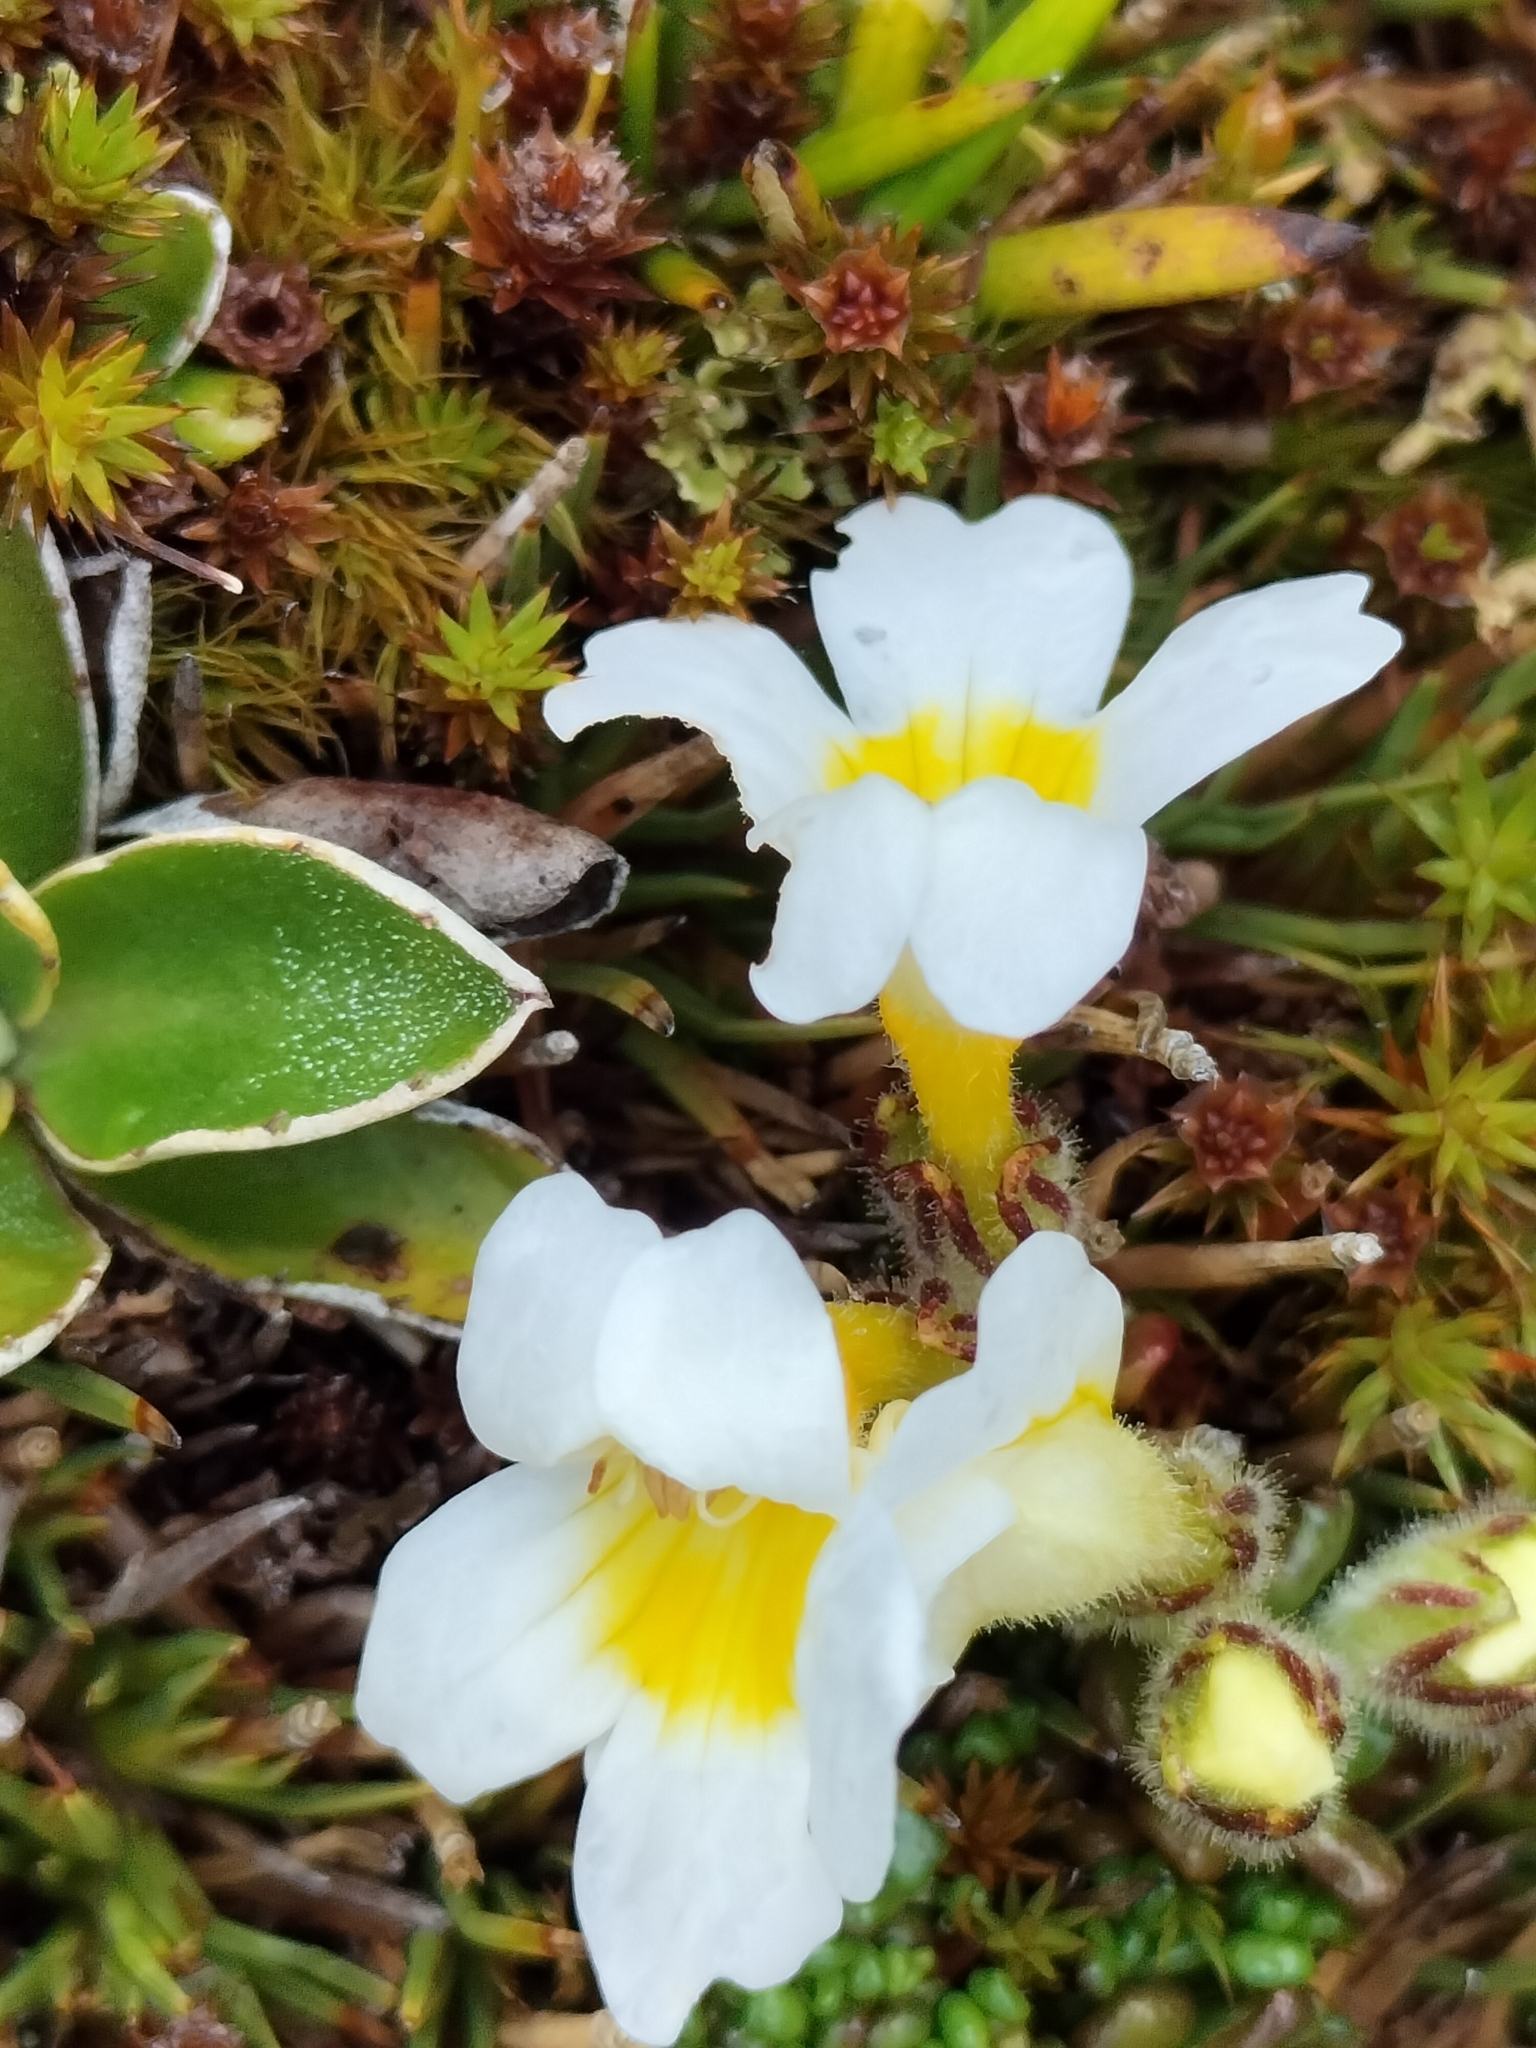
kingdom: Plantae
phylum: Tracheophyta
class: Magnoliopsida
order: Lamiales
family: Orobanchaceae
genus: Euphrasia
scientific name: Euphrasia petriei
